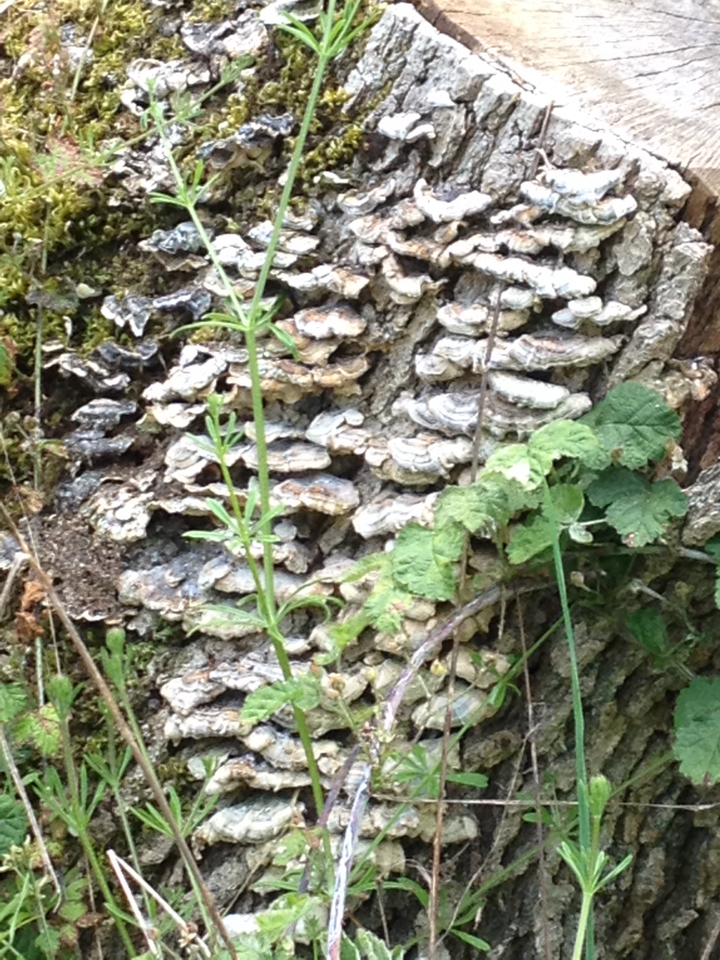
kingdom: Fungi
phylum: Basidiomycota
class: Agaricomycetes
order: Polyporales
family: Polyporaceae
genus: Trametes
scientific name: Trametes versicolor
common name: Turkeytail
